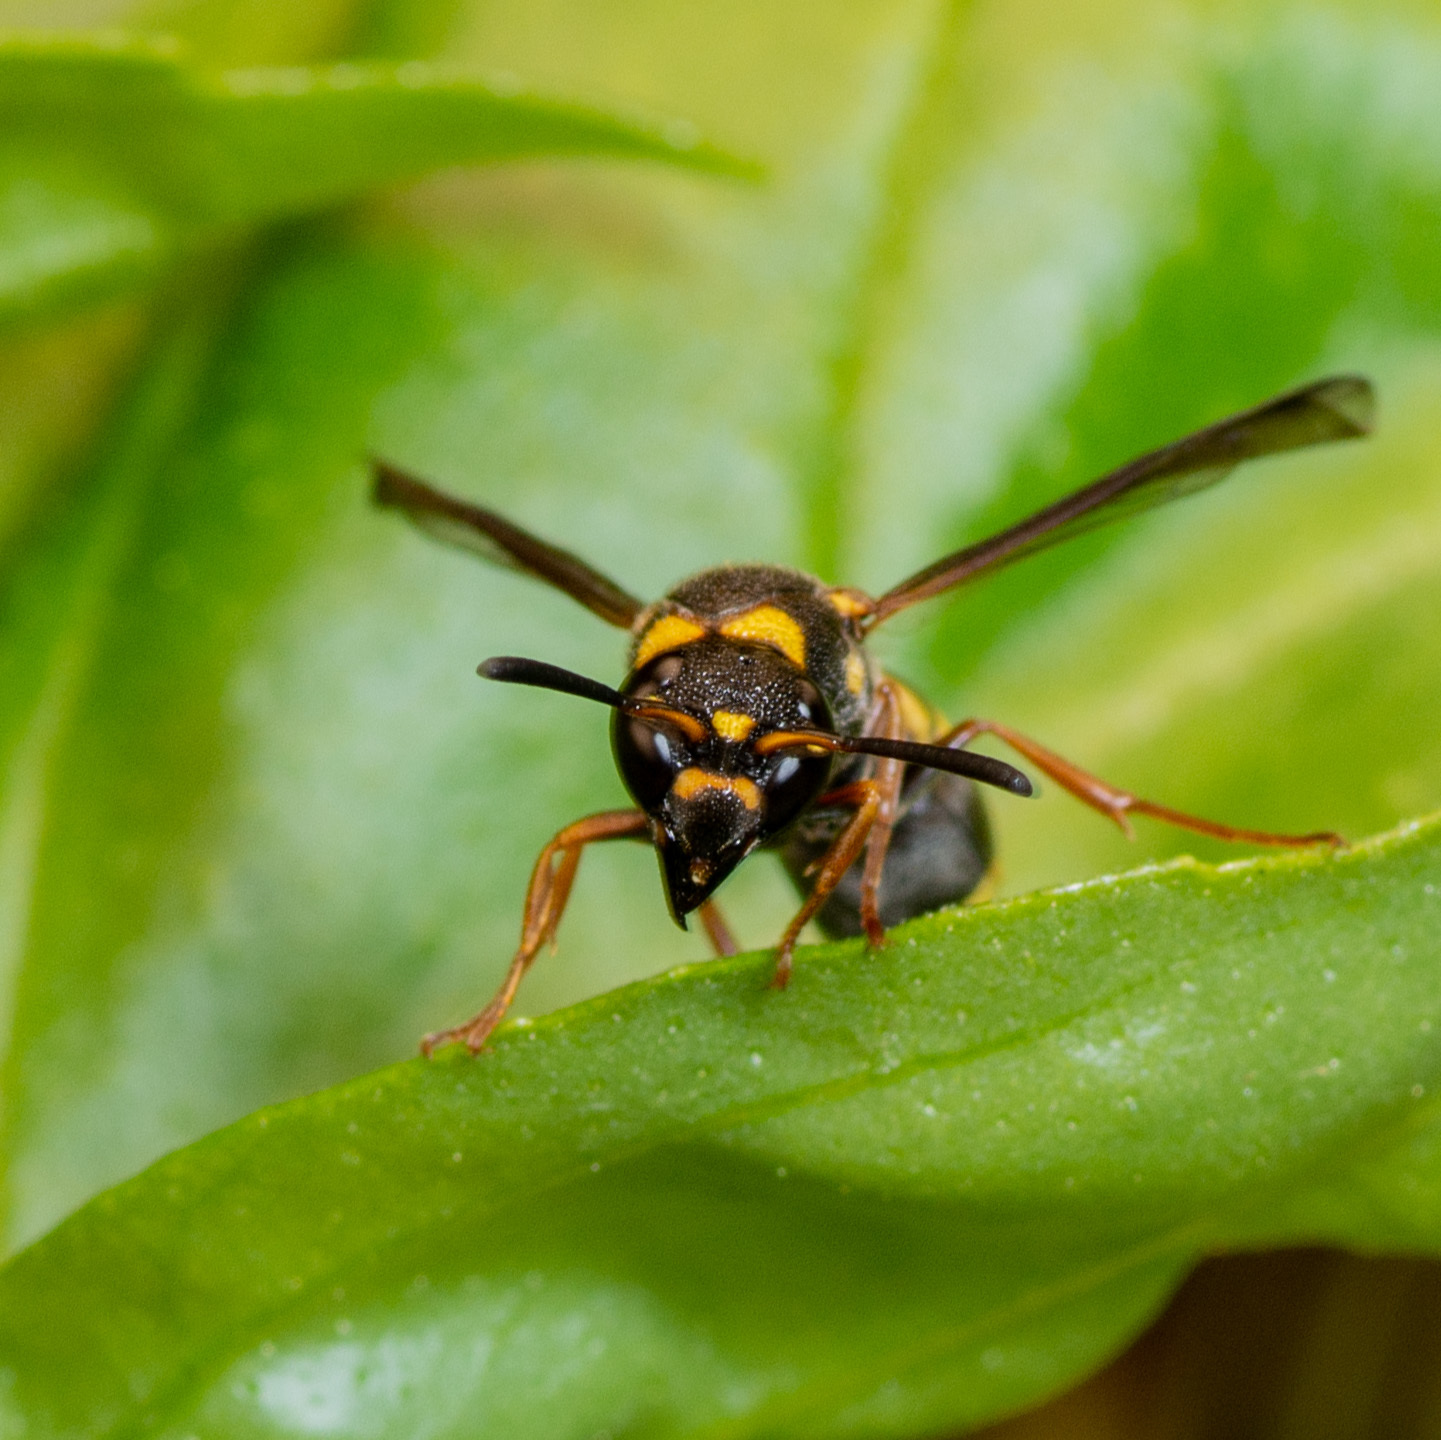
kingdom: Animalia
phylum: Arthropoda
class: Insecta
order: Hymenoptera
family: Eumenidae
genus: Parancistrocerus
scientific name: Parancistrocerus fulvipes
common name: Potter wasp
